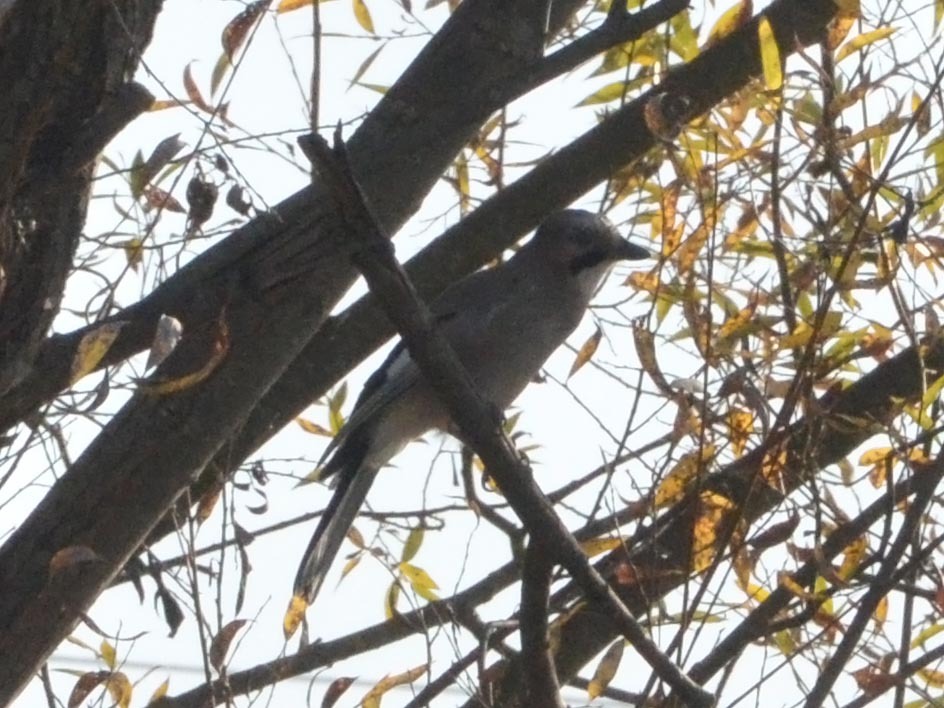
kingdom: Animalia
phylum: Chordata
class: Aves
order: Passeriformes
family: Corvidae
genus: Garrulus
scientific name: Garrulus glandarius
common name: Eurasian jay
